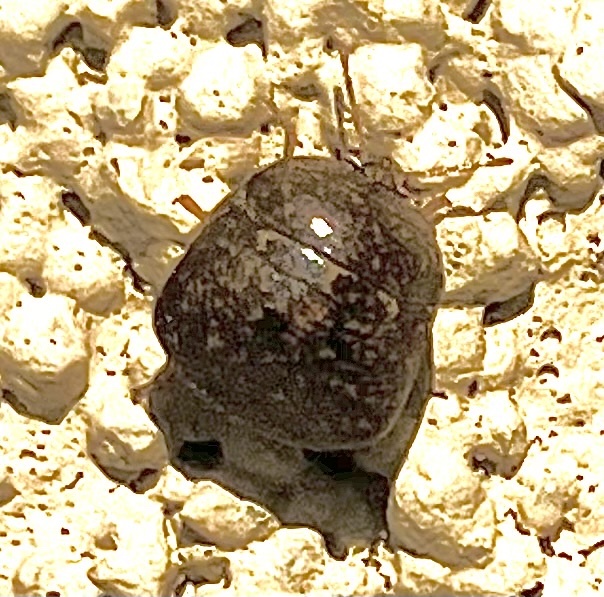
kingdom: Animalia
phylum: Arthropoda
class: Insecta
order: Hemiptera
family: Plataspidae
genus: Megacopta
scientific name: Megacopta cribraria
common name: Bean plataspid
